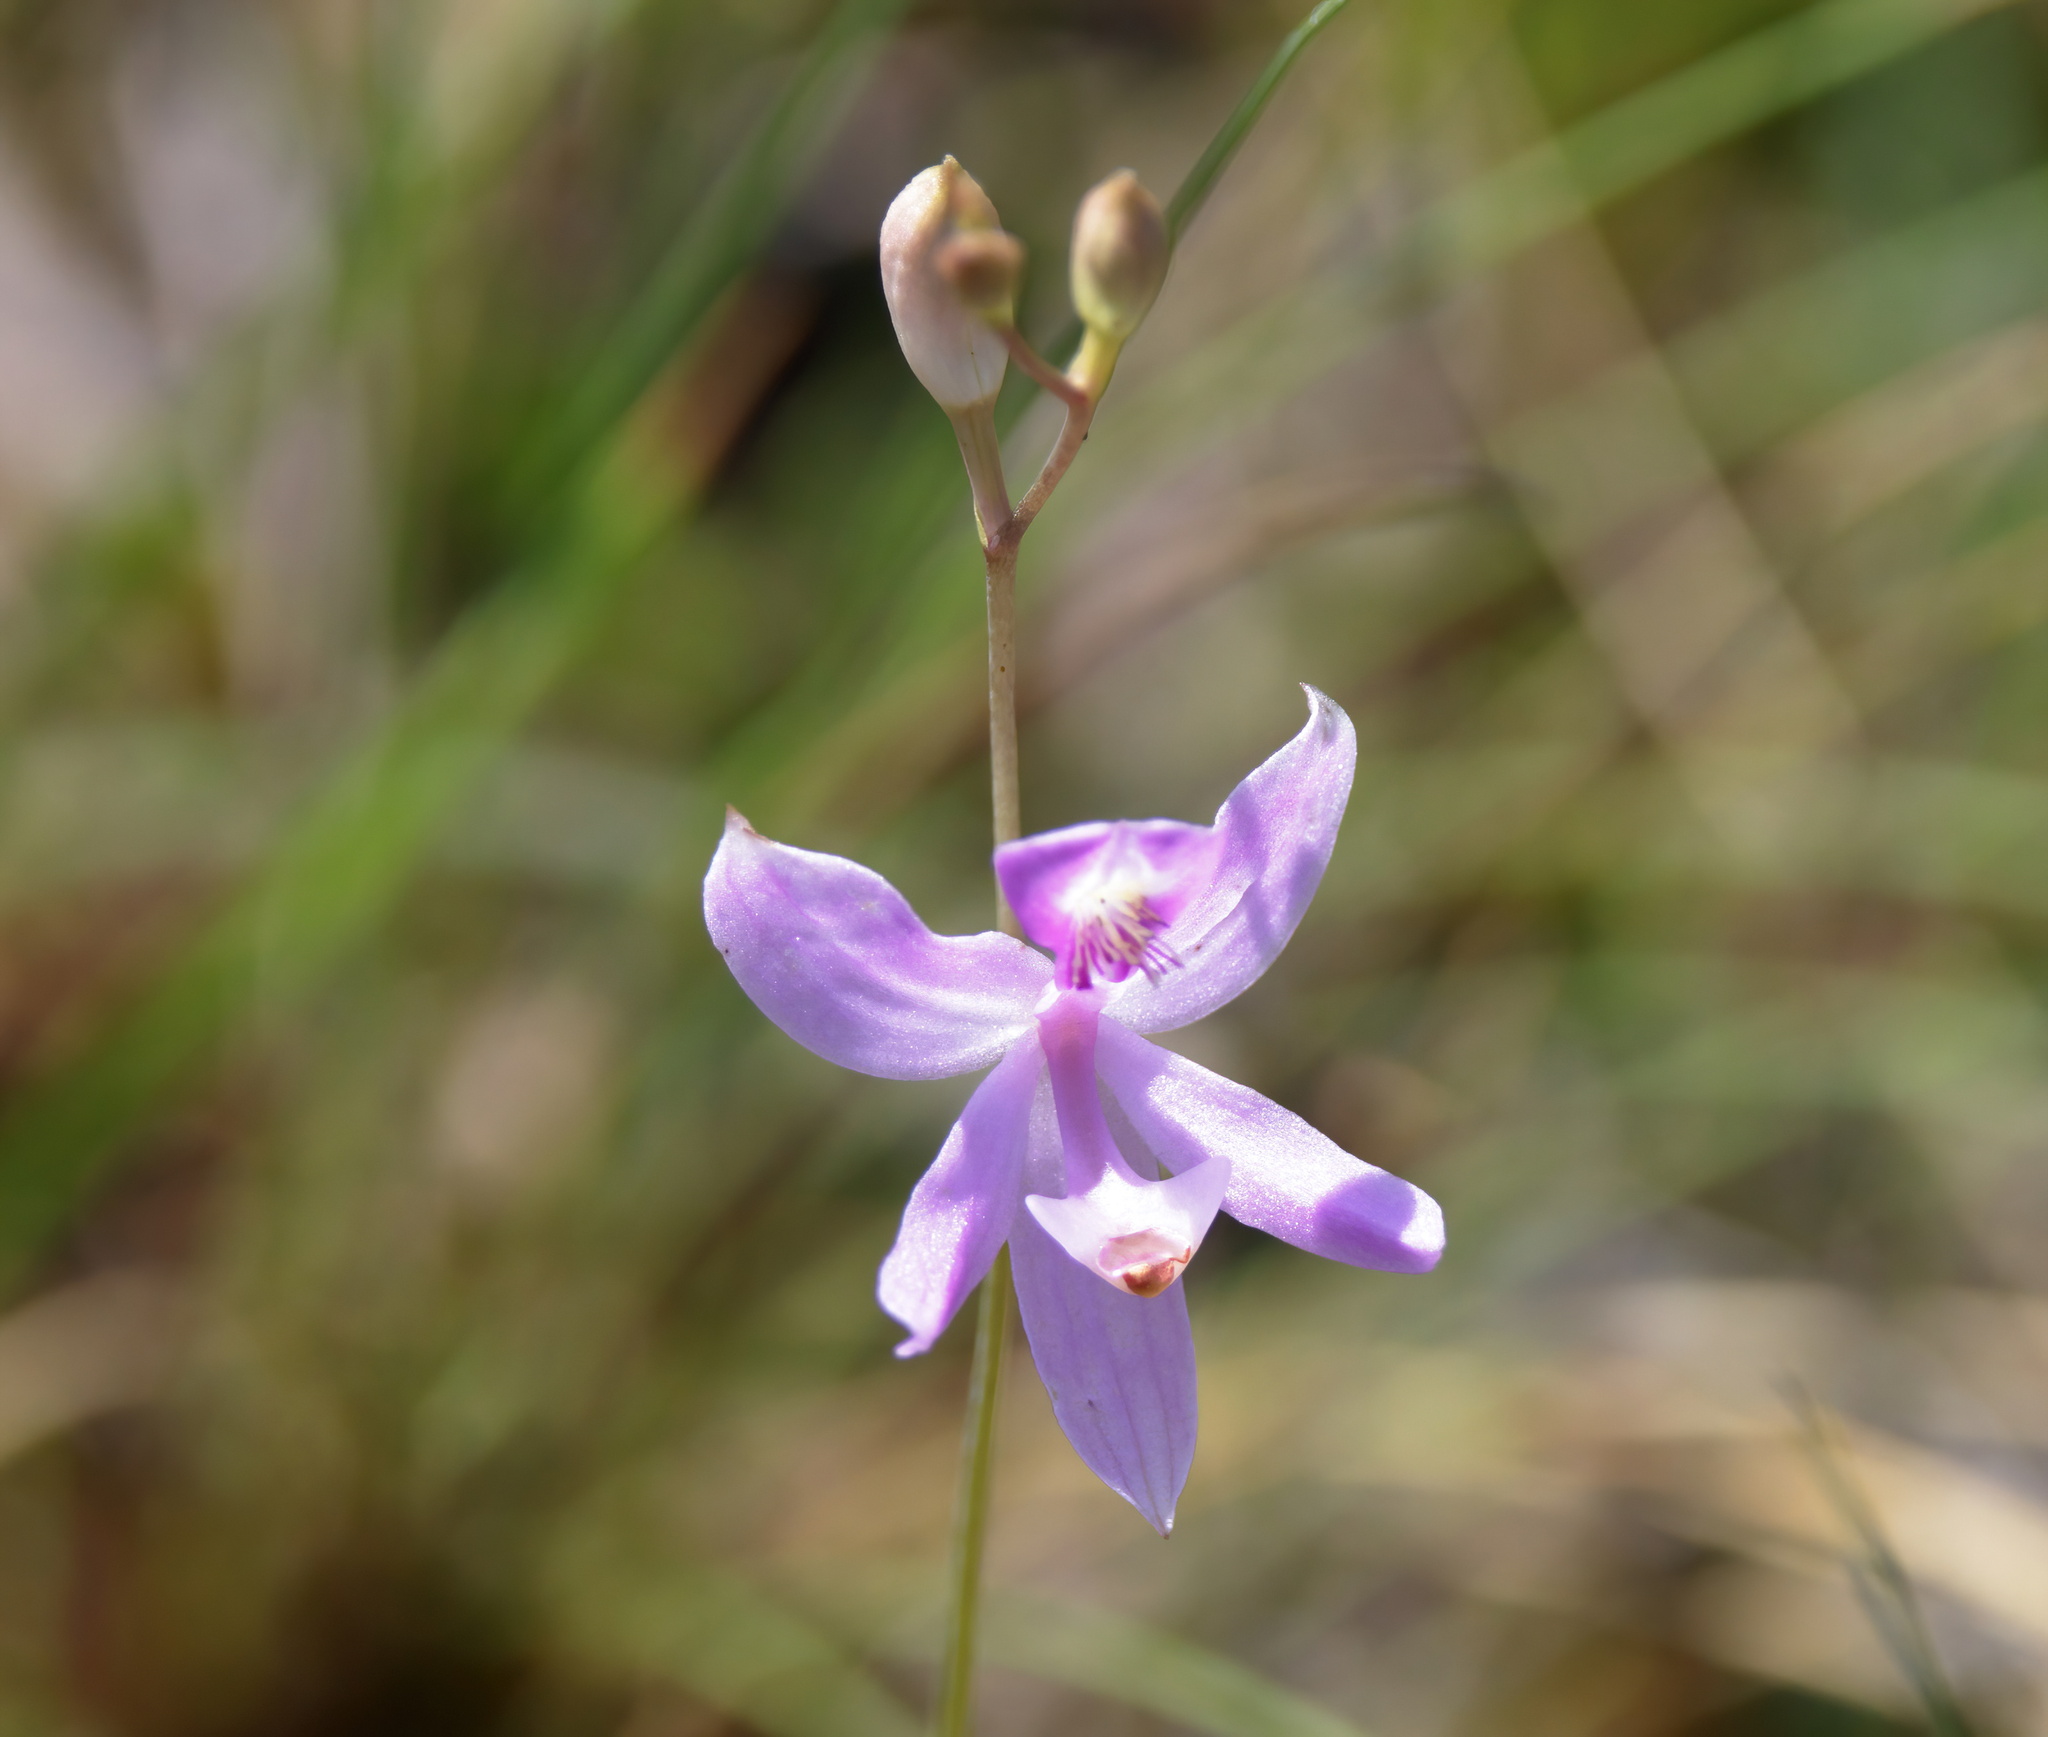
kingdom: Plantae
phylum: Tracheophyta
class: Liliopsida
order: Asparagales
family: Orchidaceae
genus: Calopogon
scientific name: Calopogon pallidus
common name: Pale grasspink
